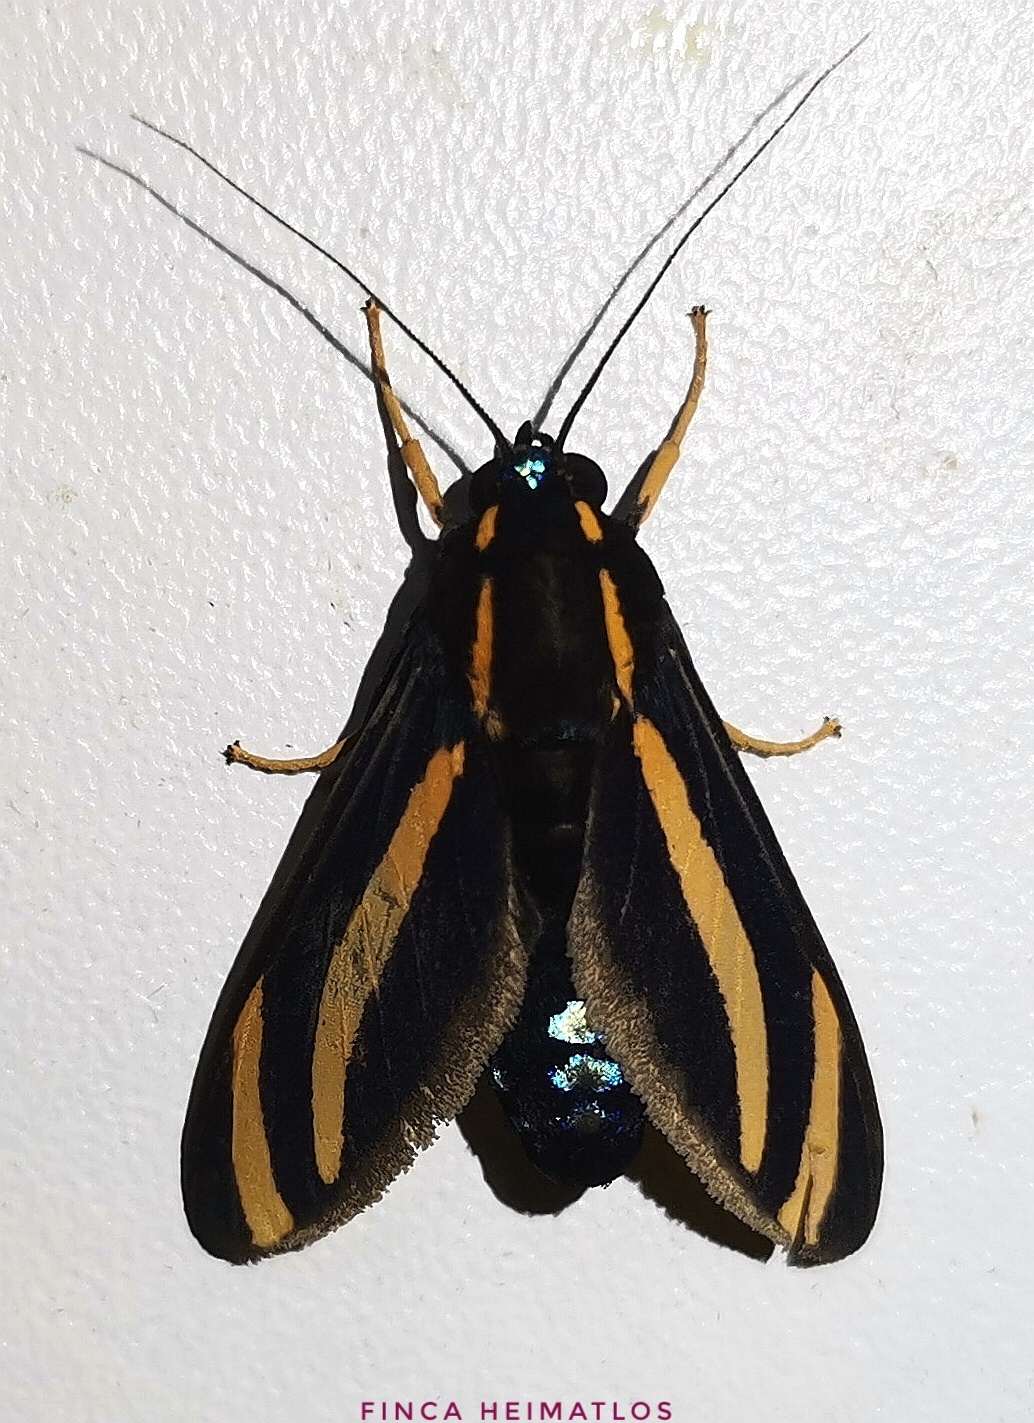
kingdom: Animalia
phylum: Arthropoda
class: Insecta
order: Lepidoptera
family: Erebidae
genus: Ormetica
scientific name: Ormetica packardi
